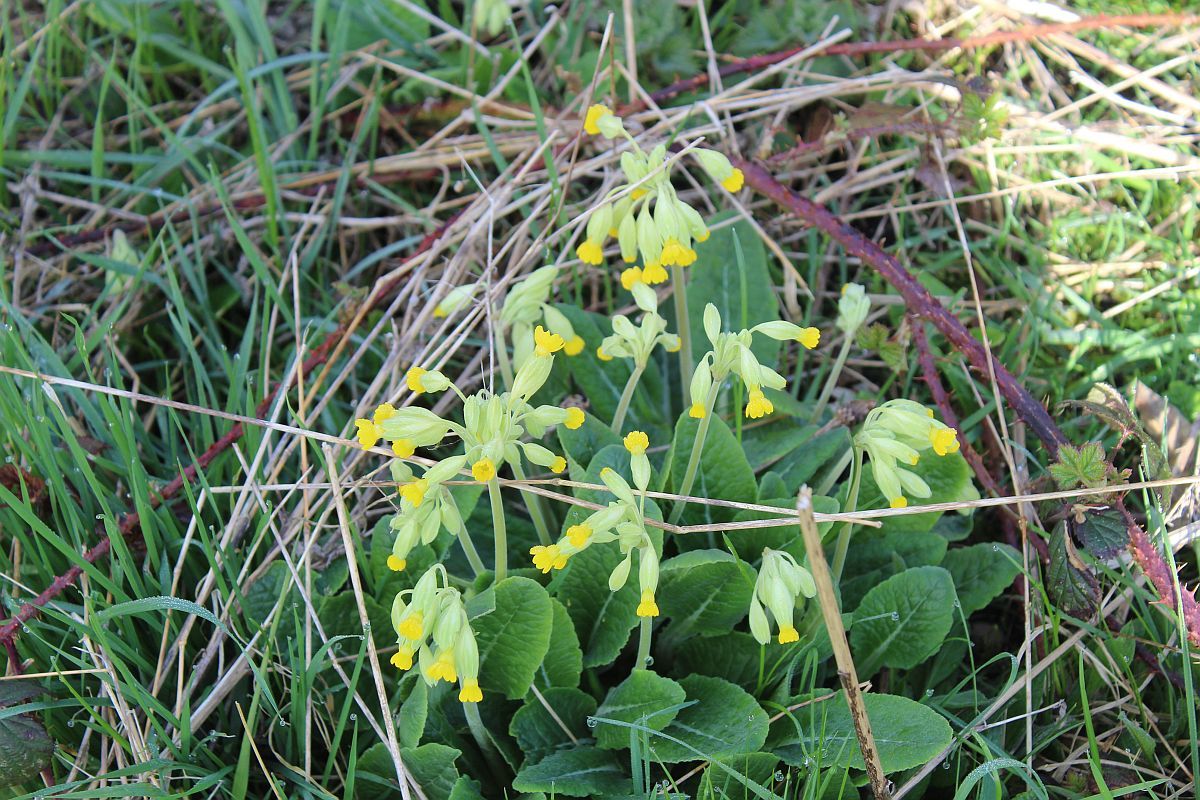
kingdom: Plantae
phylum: Tracheophyta
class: Magnoliopsida
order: Ericales
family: Primulaceae
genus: Primula
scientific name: Primula veris
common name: Cowslip
